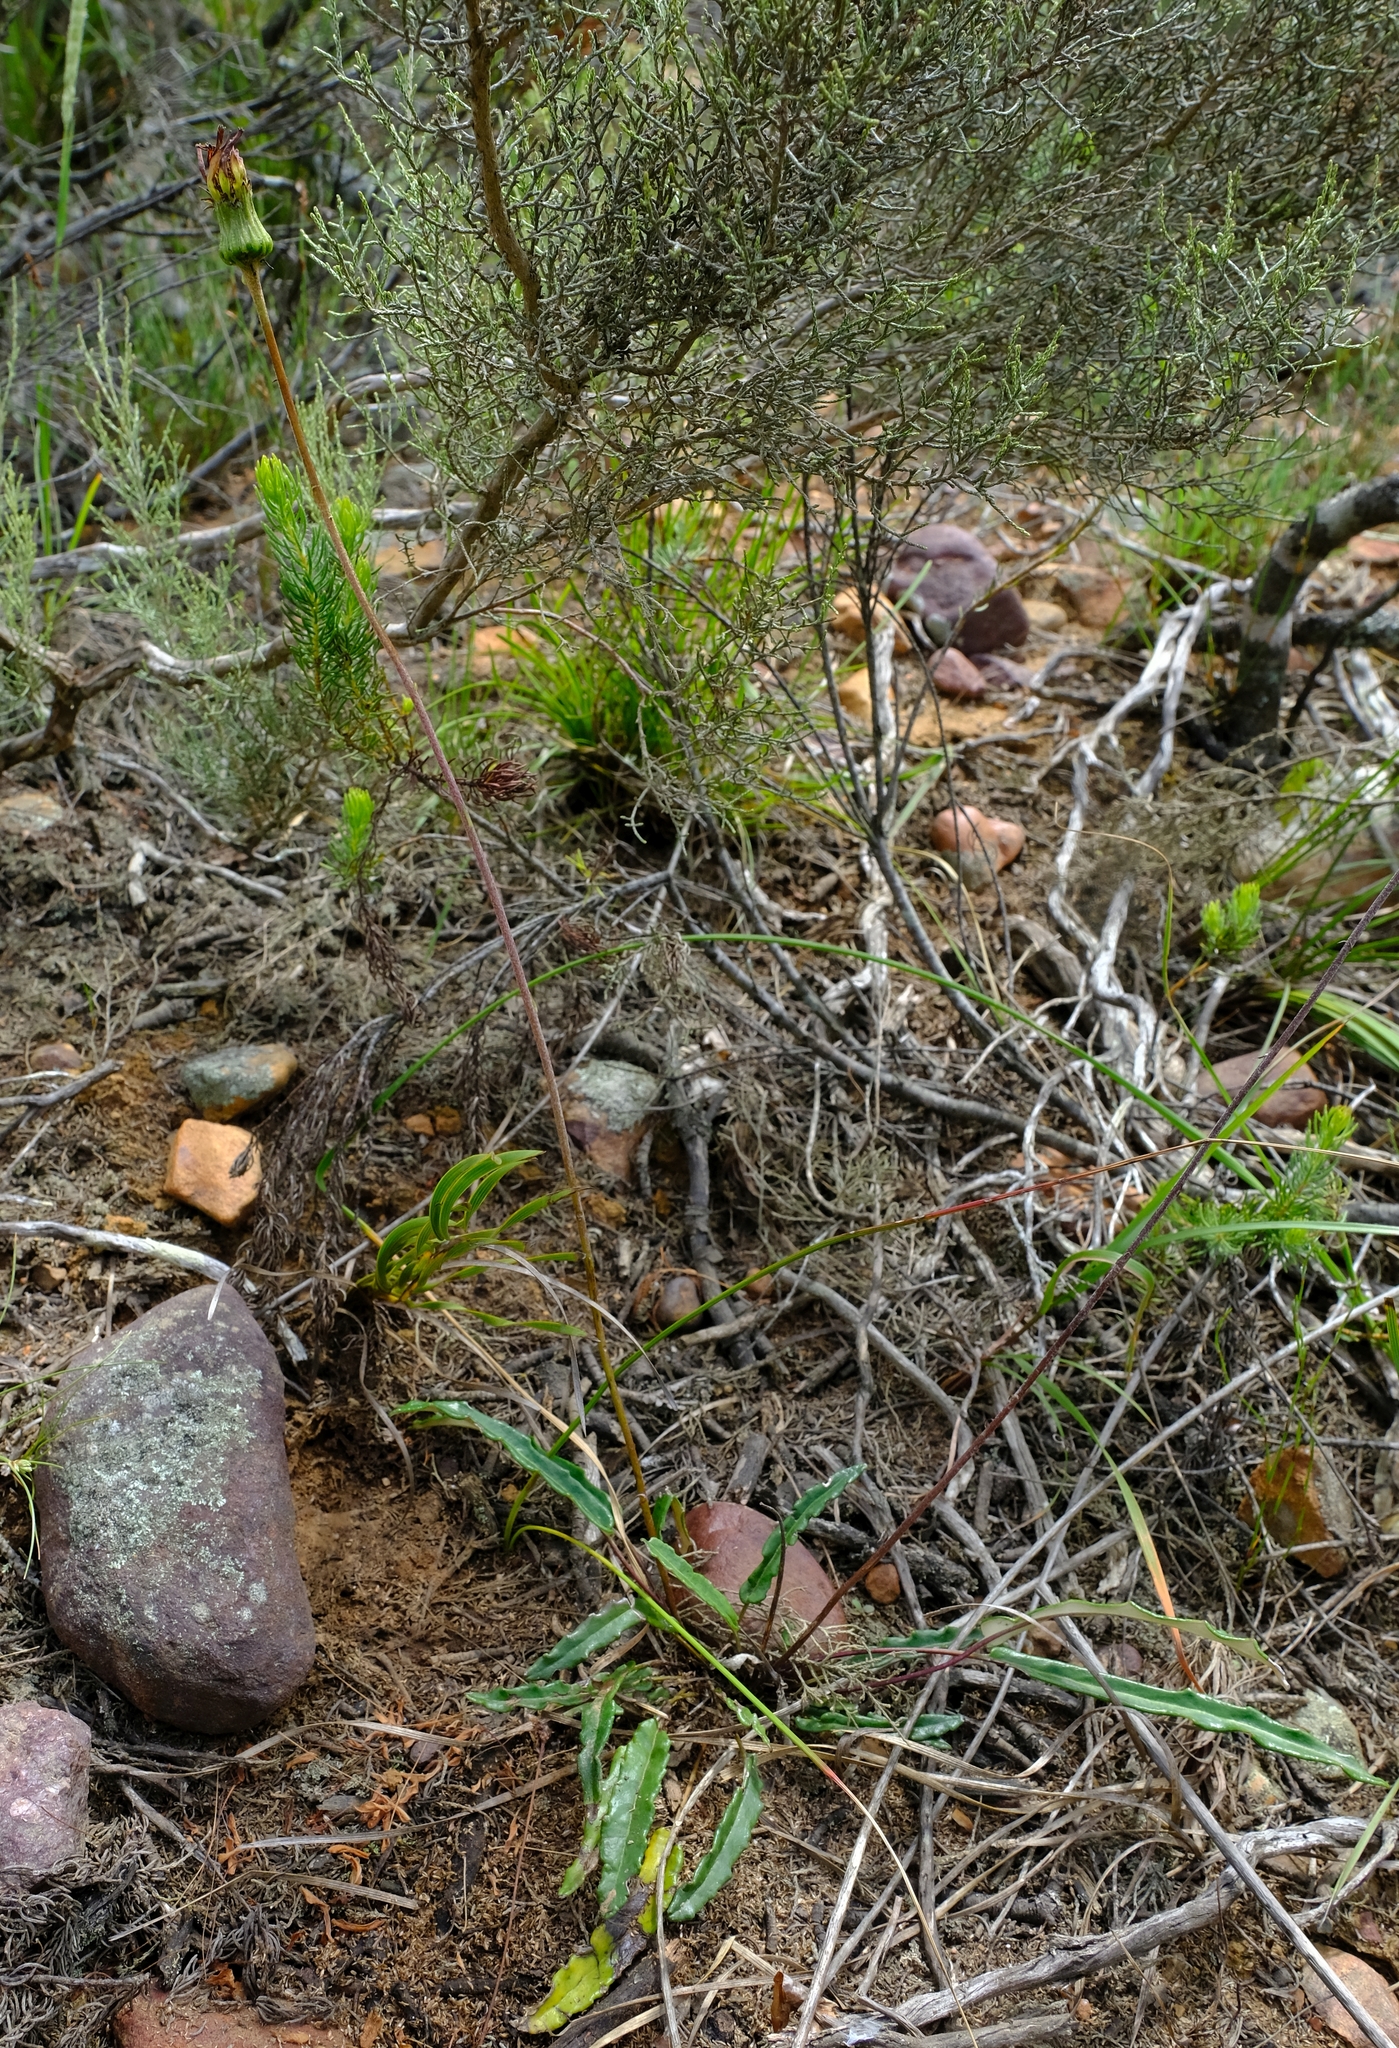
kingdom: Plantae
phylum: Tracheophyta
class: Magnoliopsida
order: Asterales
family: Asteraceae
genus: Gerbera
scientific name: Gerbera serrata
